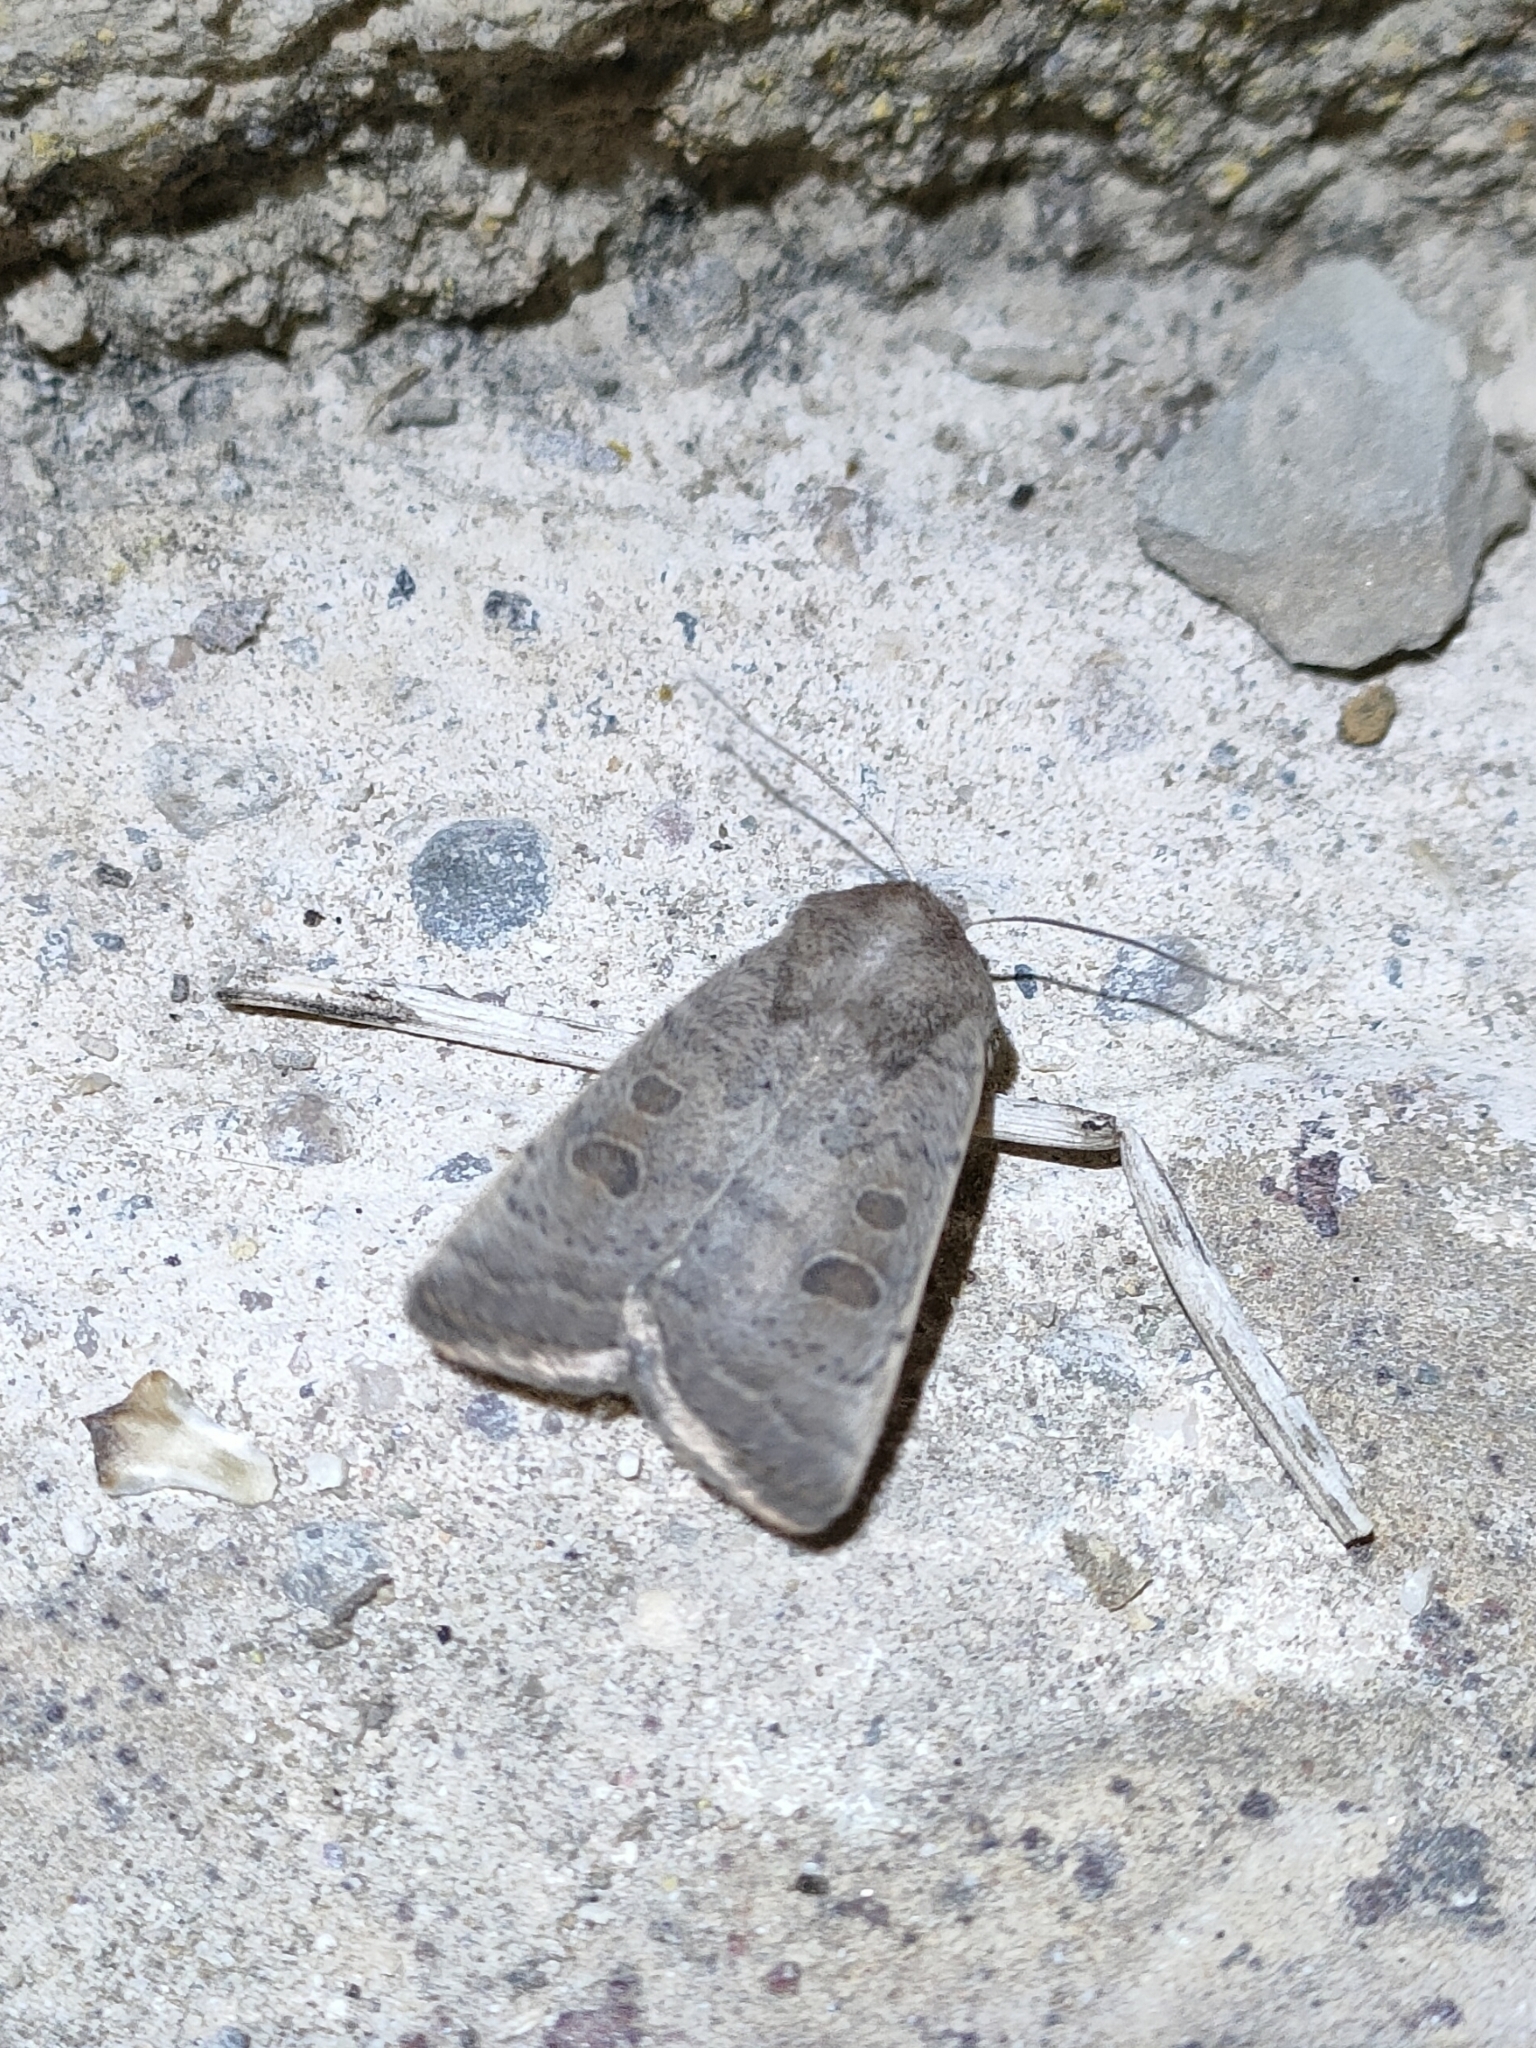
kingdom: Animalia
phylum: Arthropoda
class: Insecta
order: Lepidoptera
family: Noctuidae
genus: Hoplodrina
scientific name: Hoplodrina ambigua
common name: Vine's rustic
